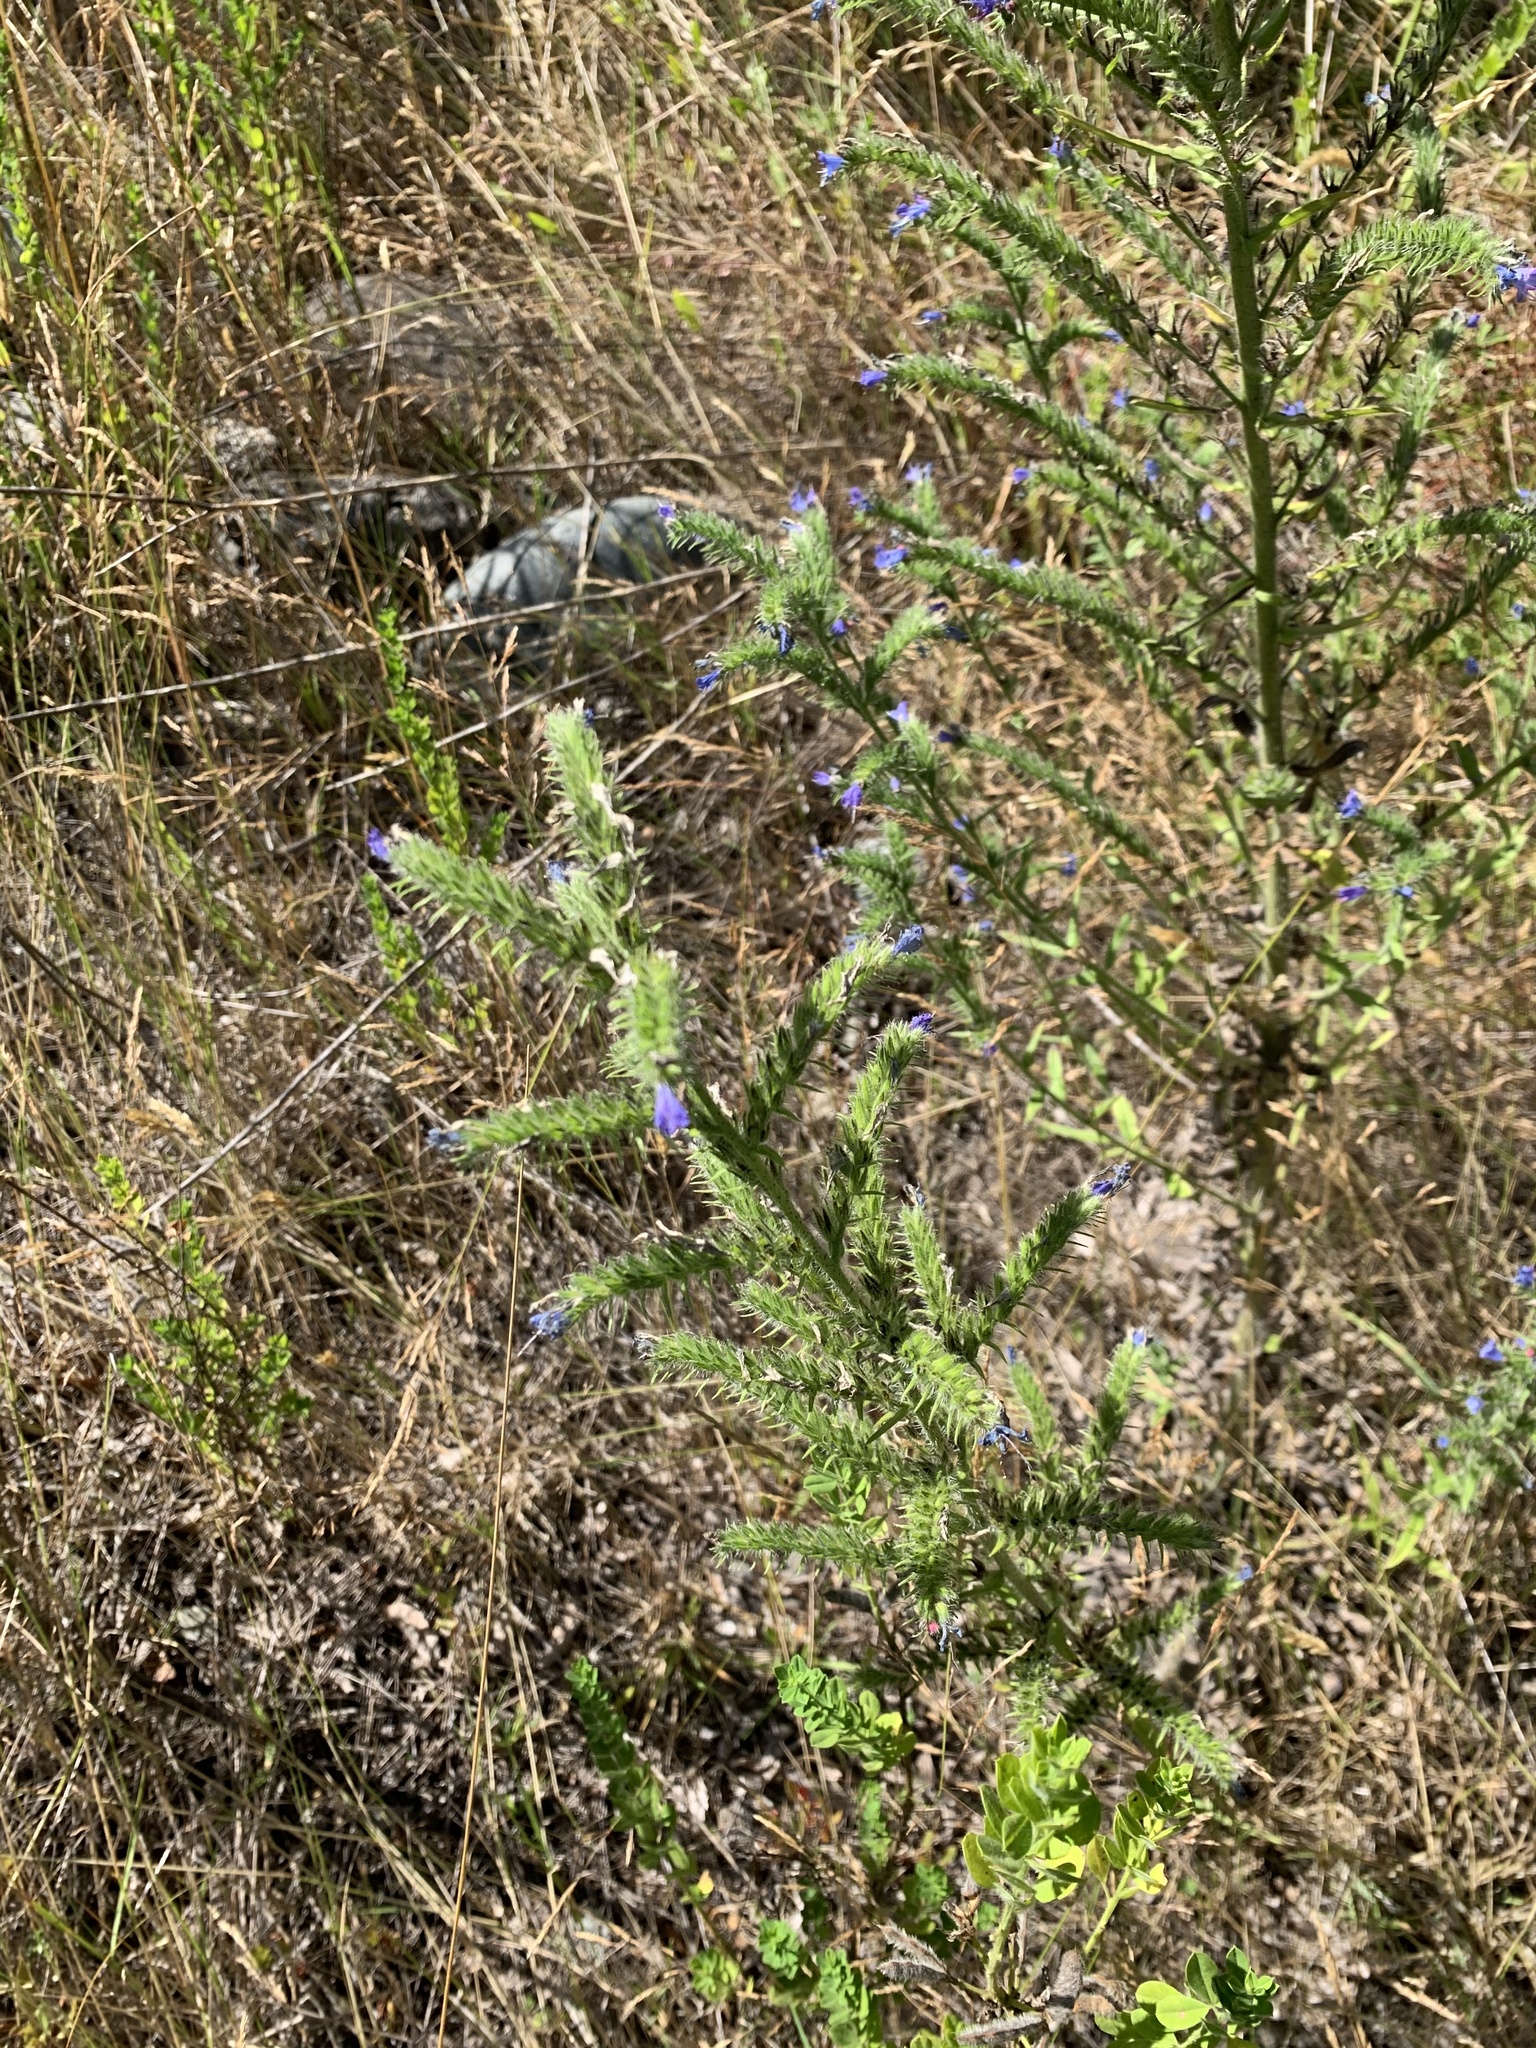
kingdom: Plantae
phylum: Tracheophyta
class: Magnoliopsida
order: Boraginales
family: Boraginaceae
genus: Echium
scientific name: Echium vulgare
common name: Common viper's bugloss
